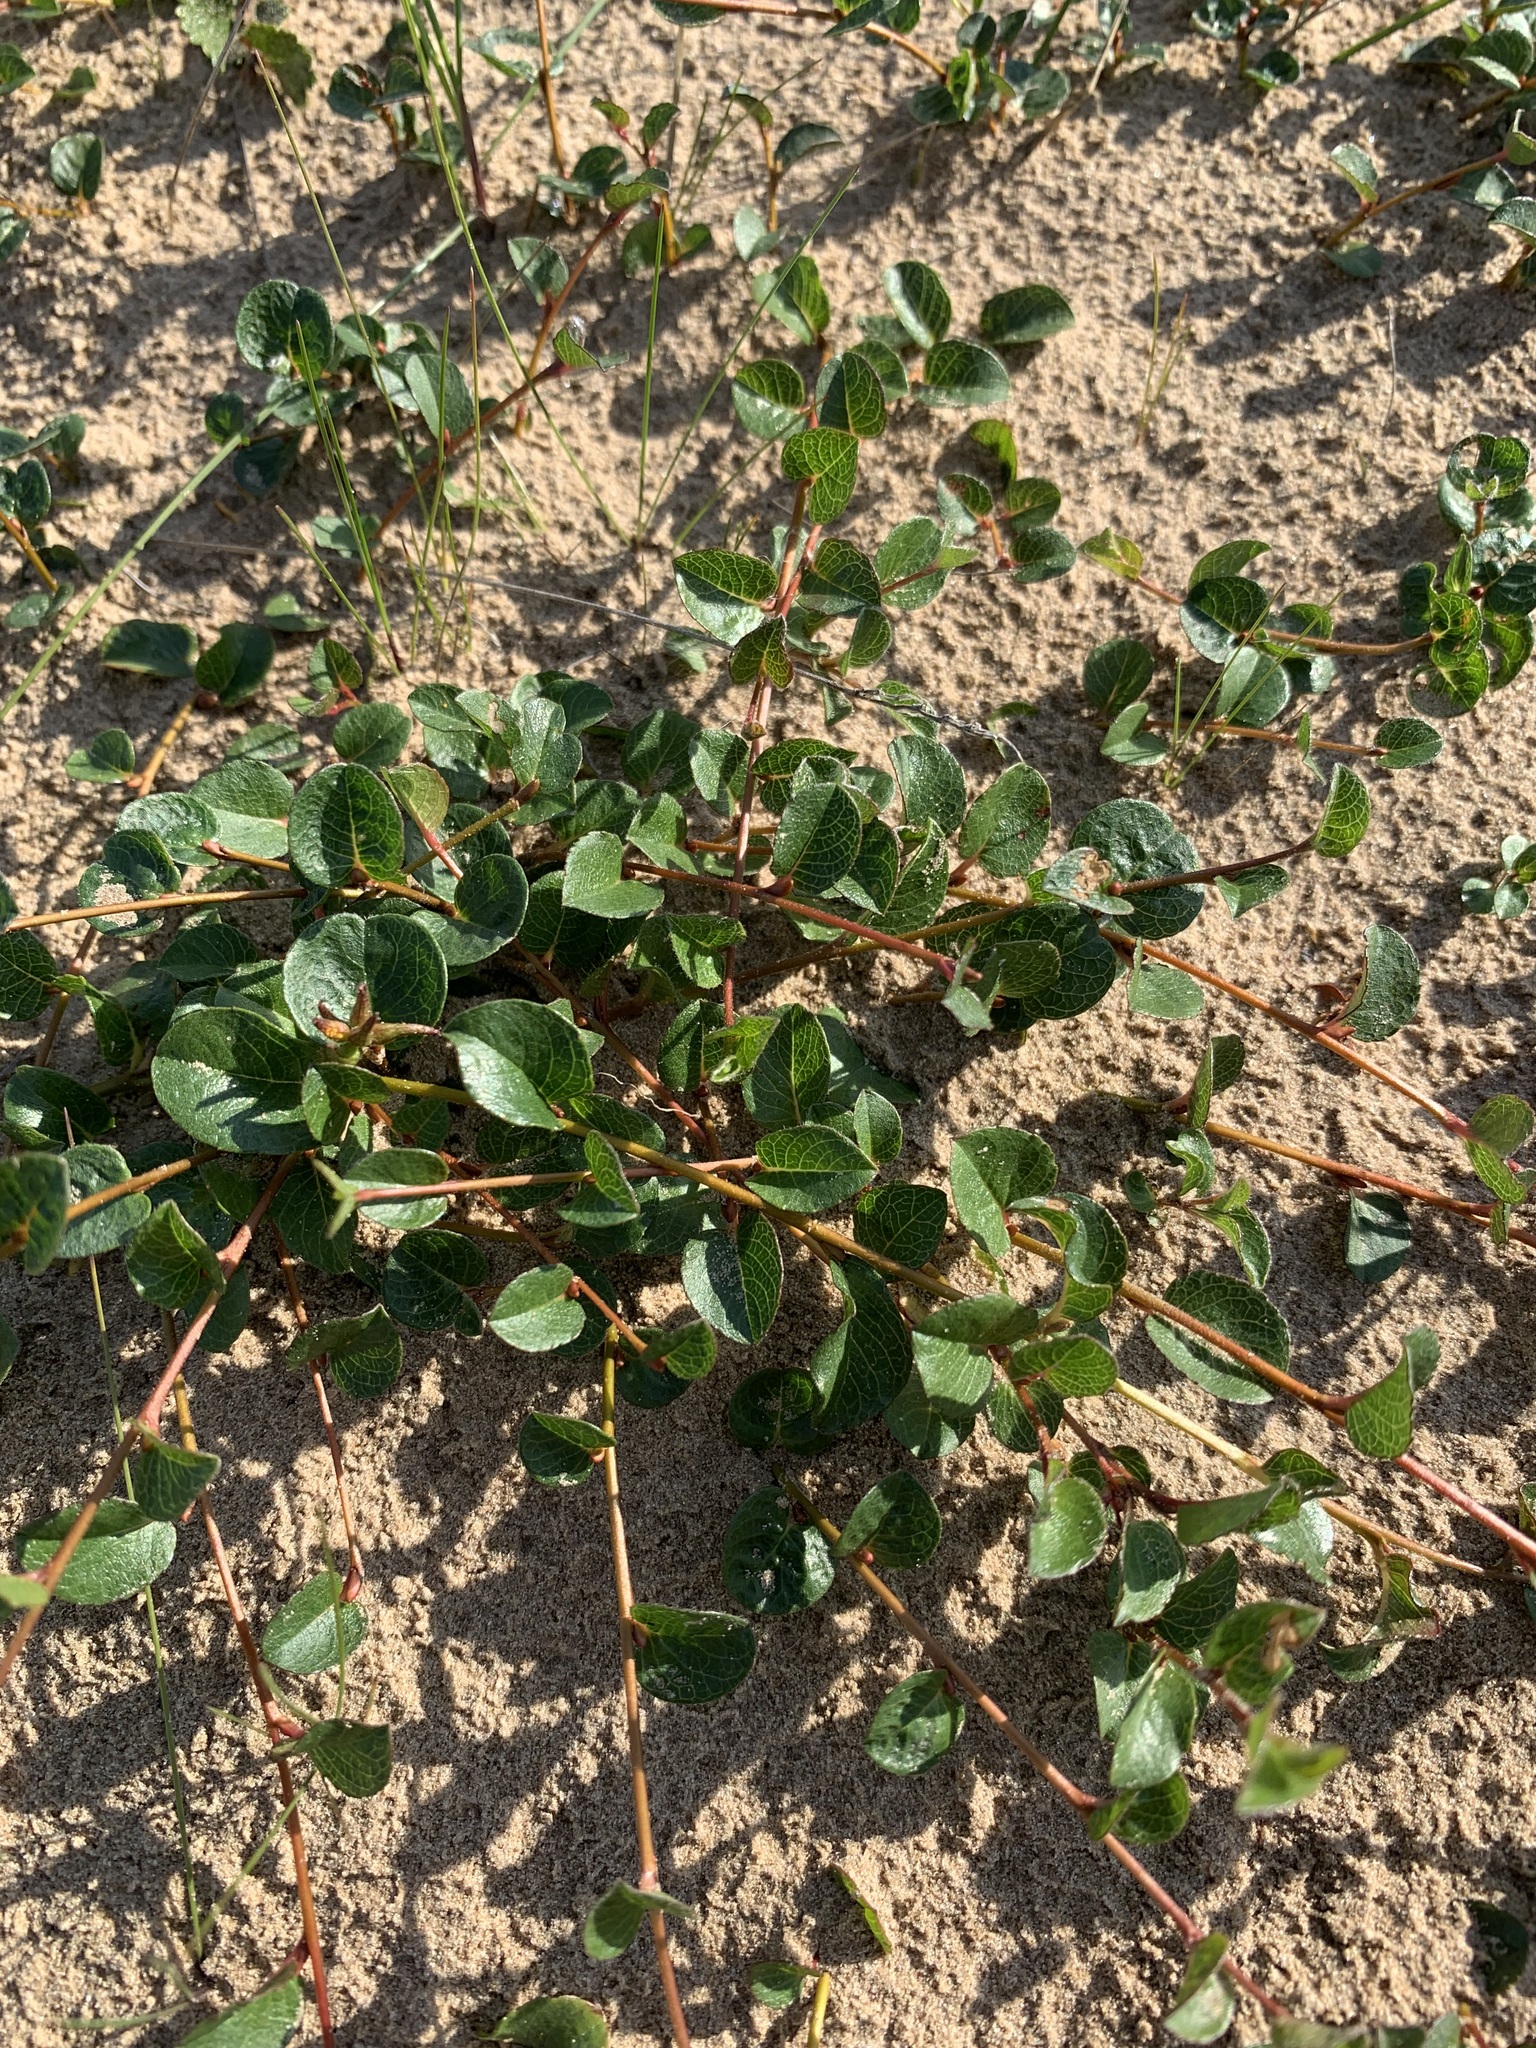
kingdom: Plantae
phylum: Tracheophyta
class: Magnoliopsida
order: Malpighiales
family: Salicaceae
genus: Salix
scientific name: Salix nummularia
